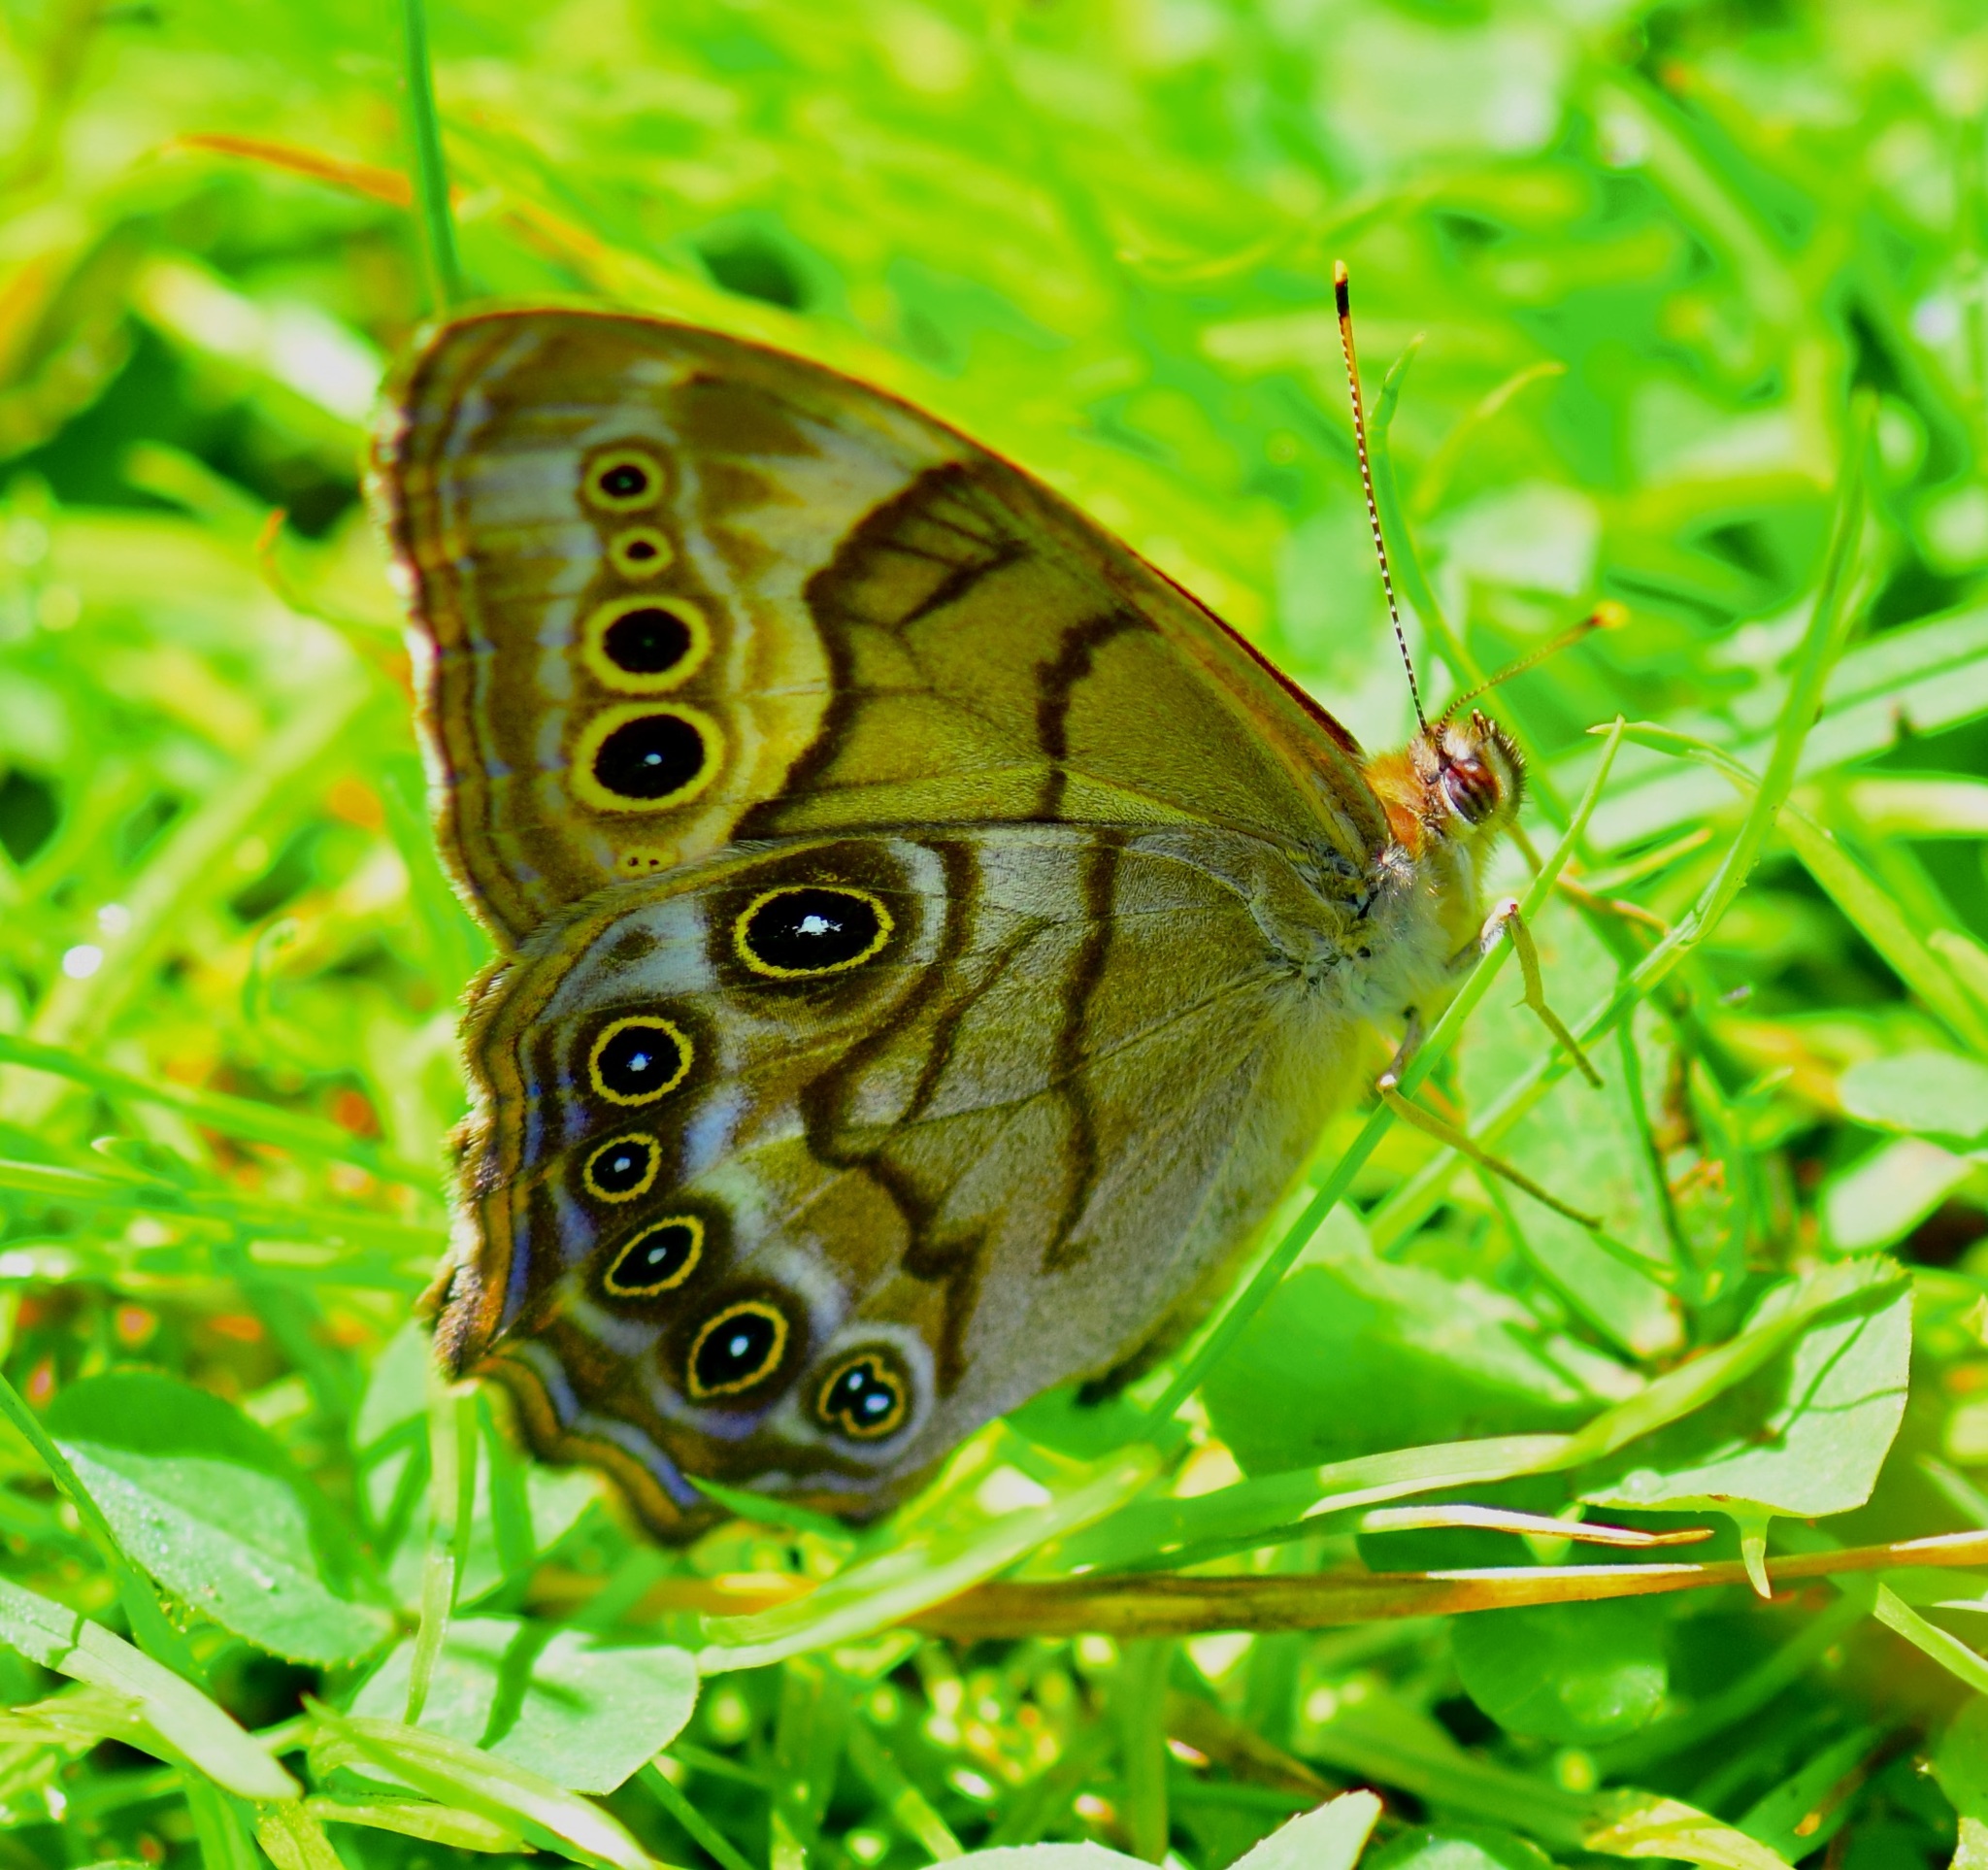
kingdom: Animalia
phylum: Arthropoda
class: Insecta
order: Lepidoptera
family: Nymphalidae
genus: Lethe
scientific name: Lethe anthedon
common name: Northern pearly-eye
